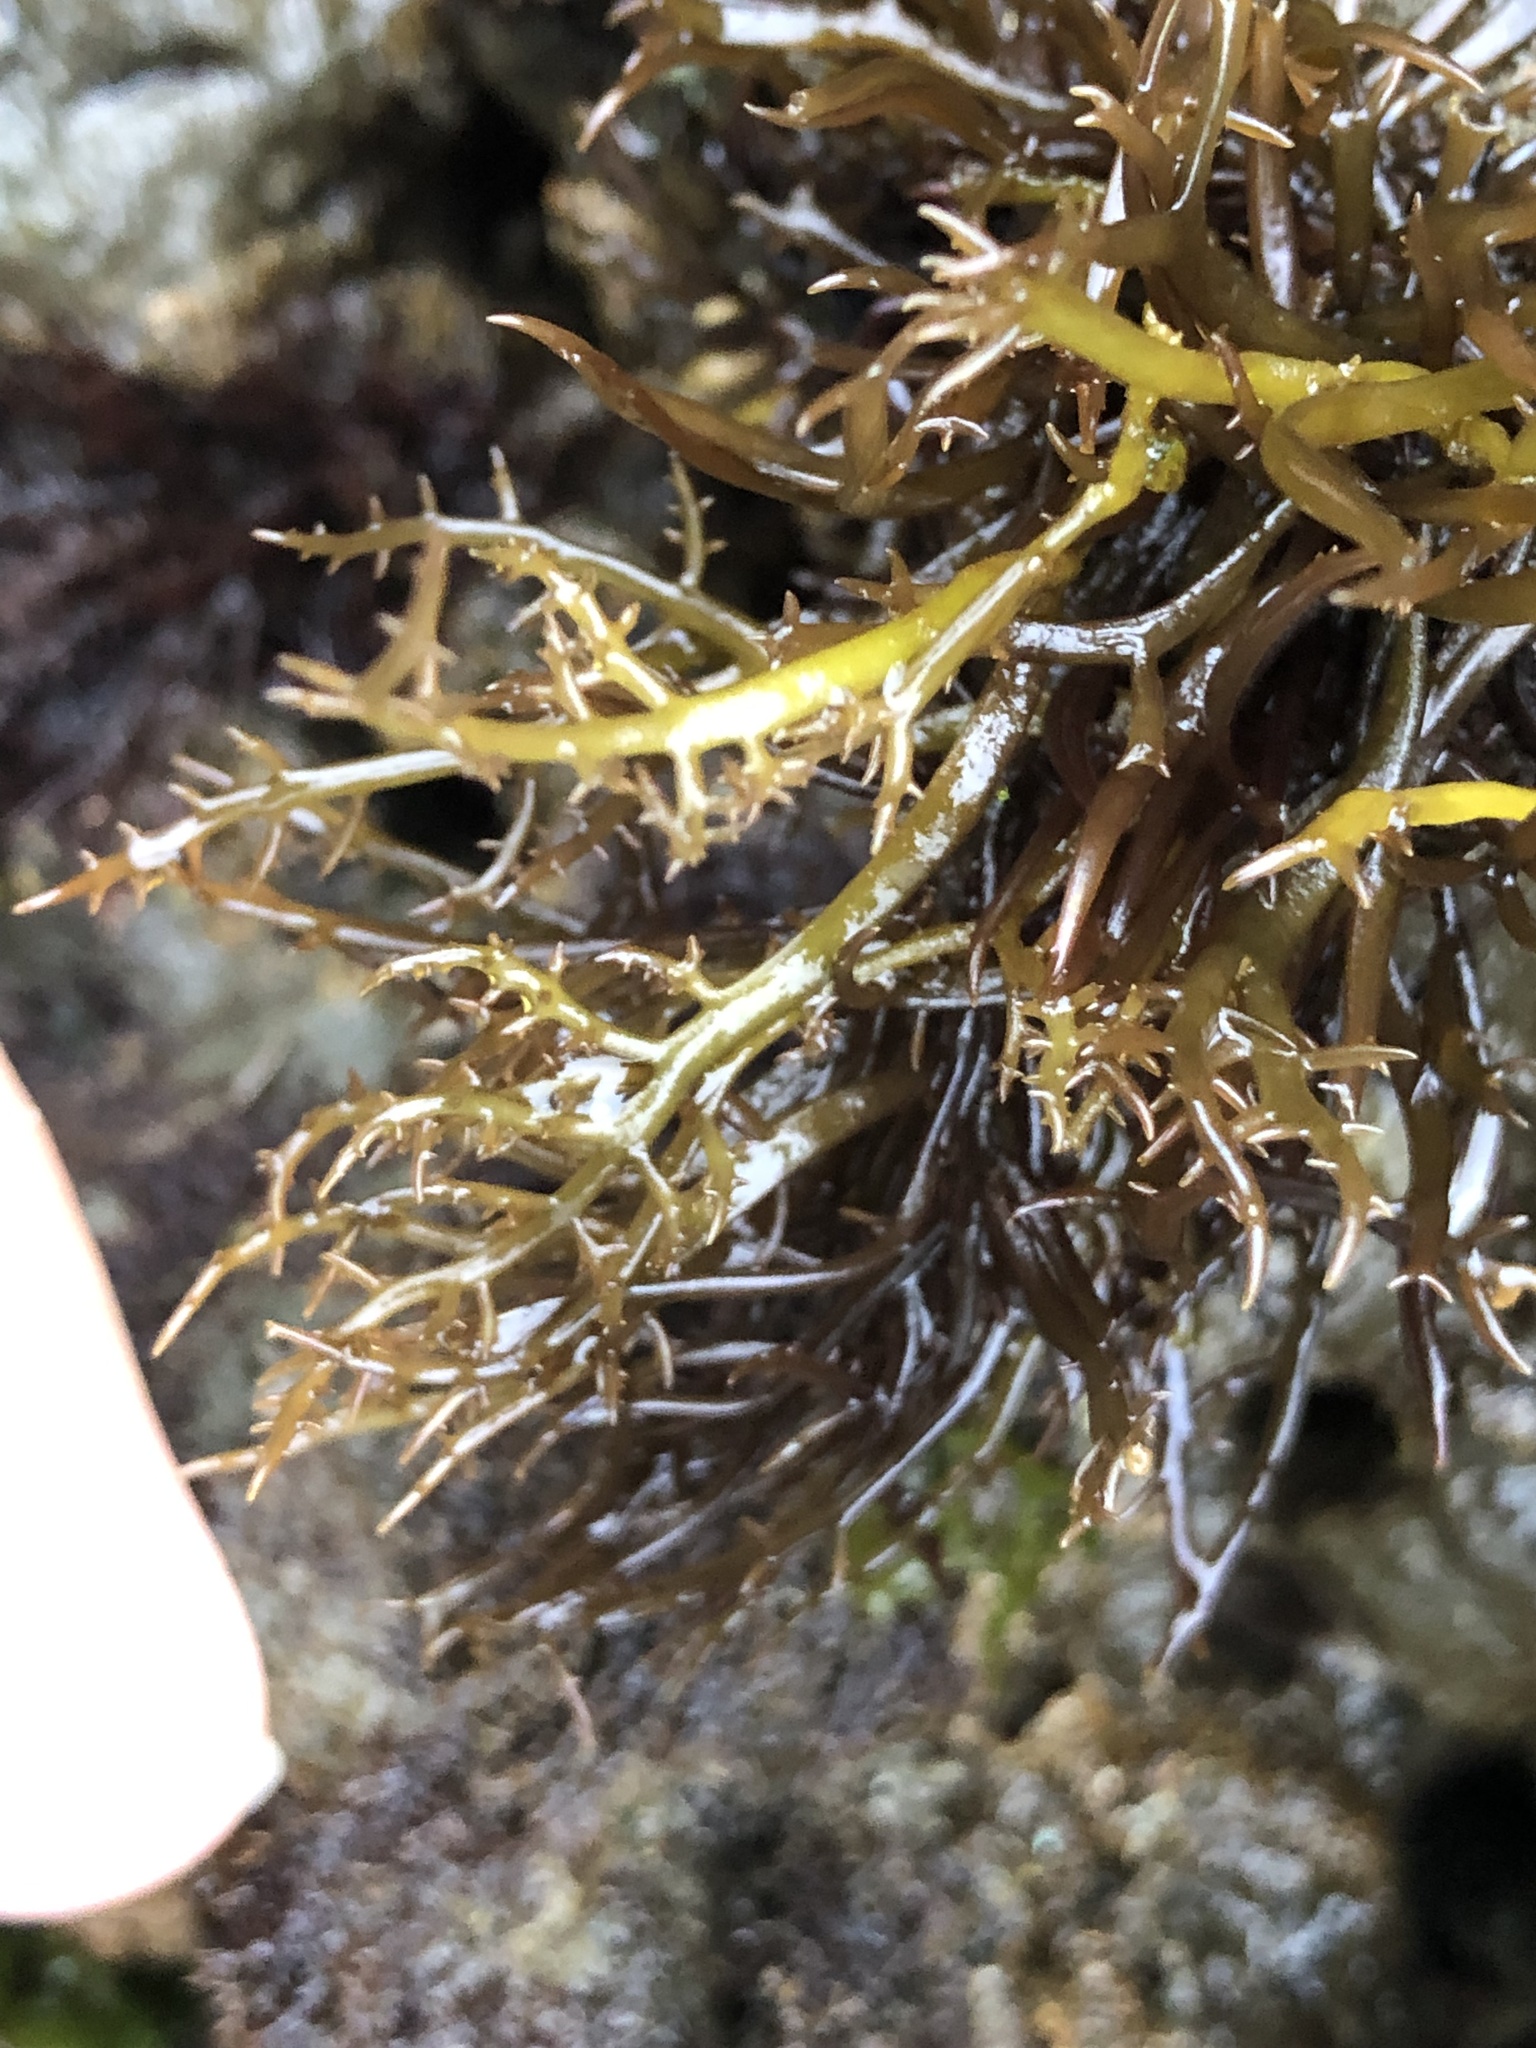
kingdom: Plantae
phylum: Rhodophyta
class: Florideophyceae
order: Gigartinales
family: Gigartinaceae
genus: Chondracanthus
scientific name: Chondracanthus canaliculatus
